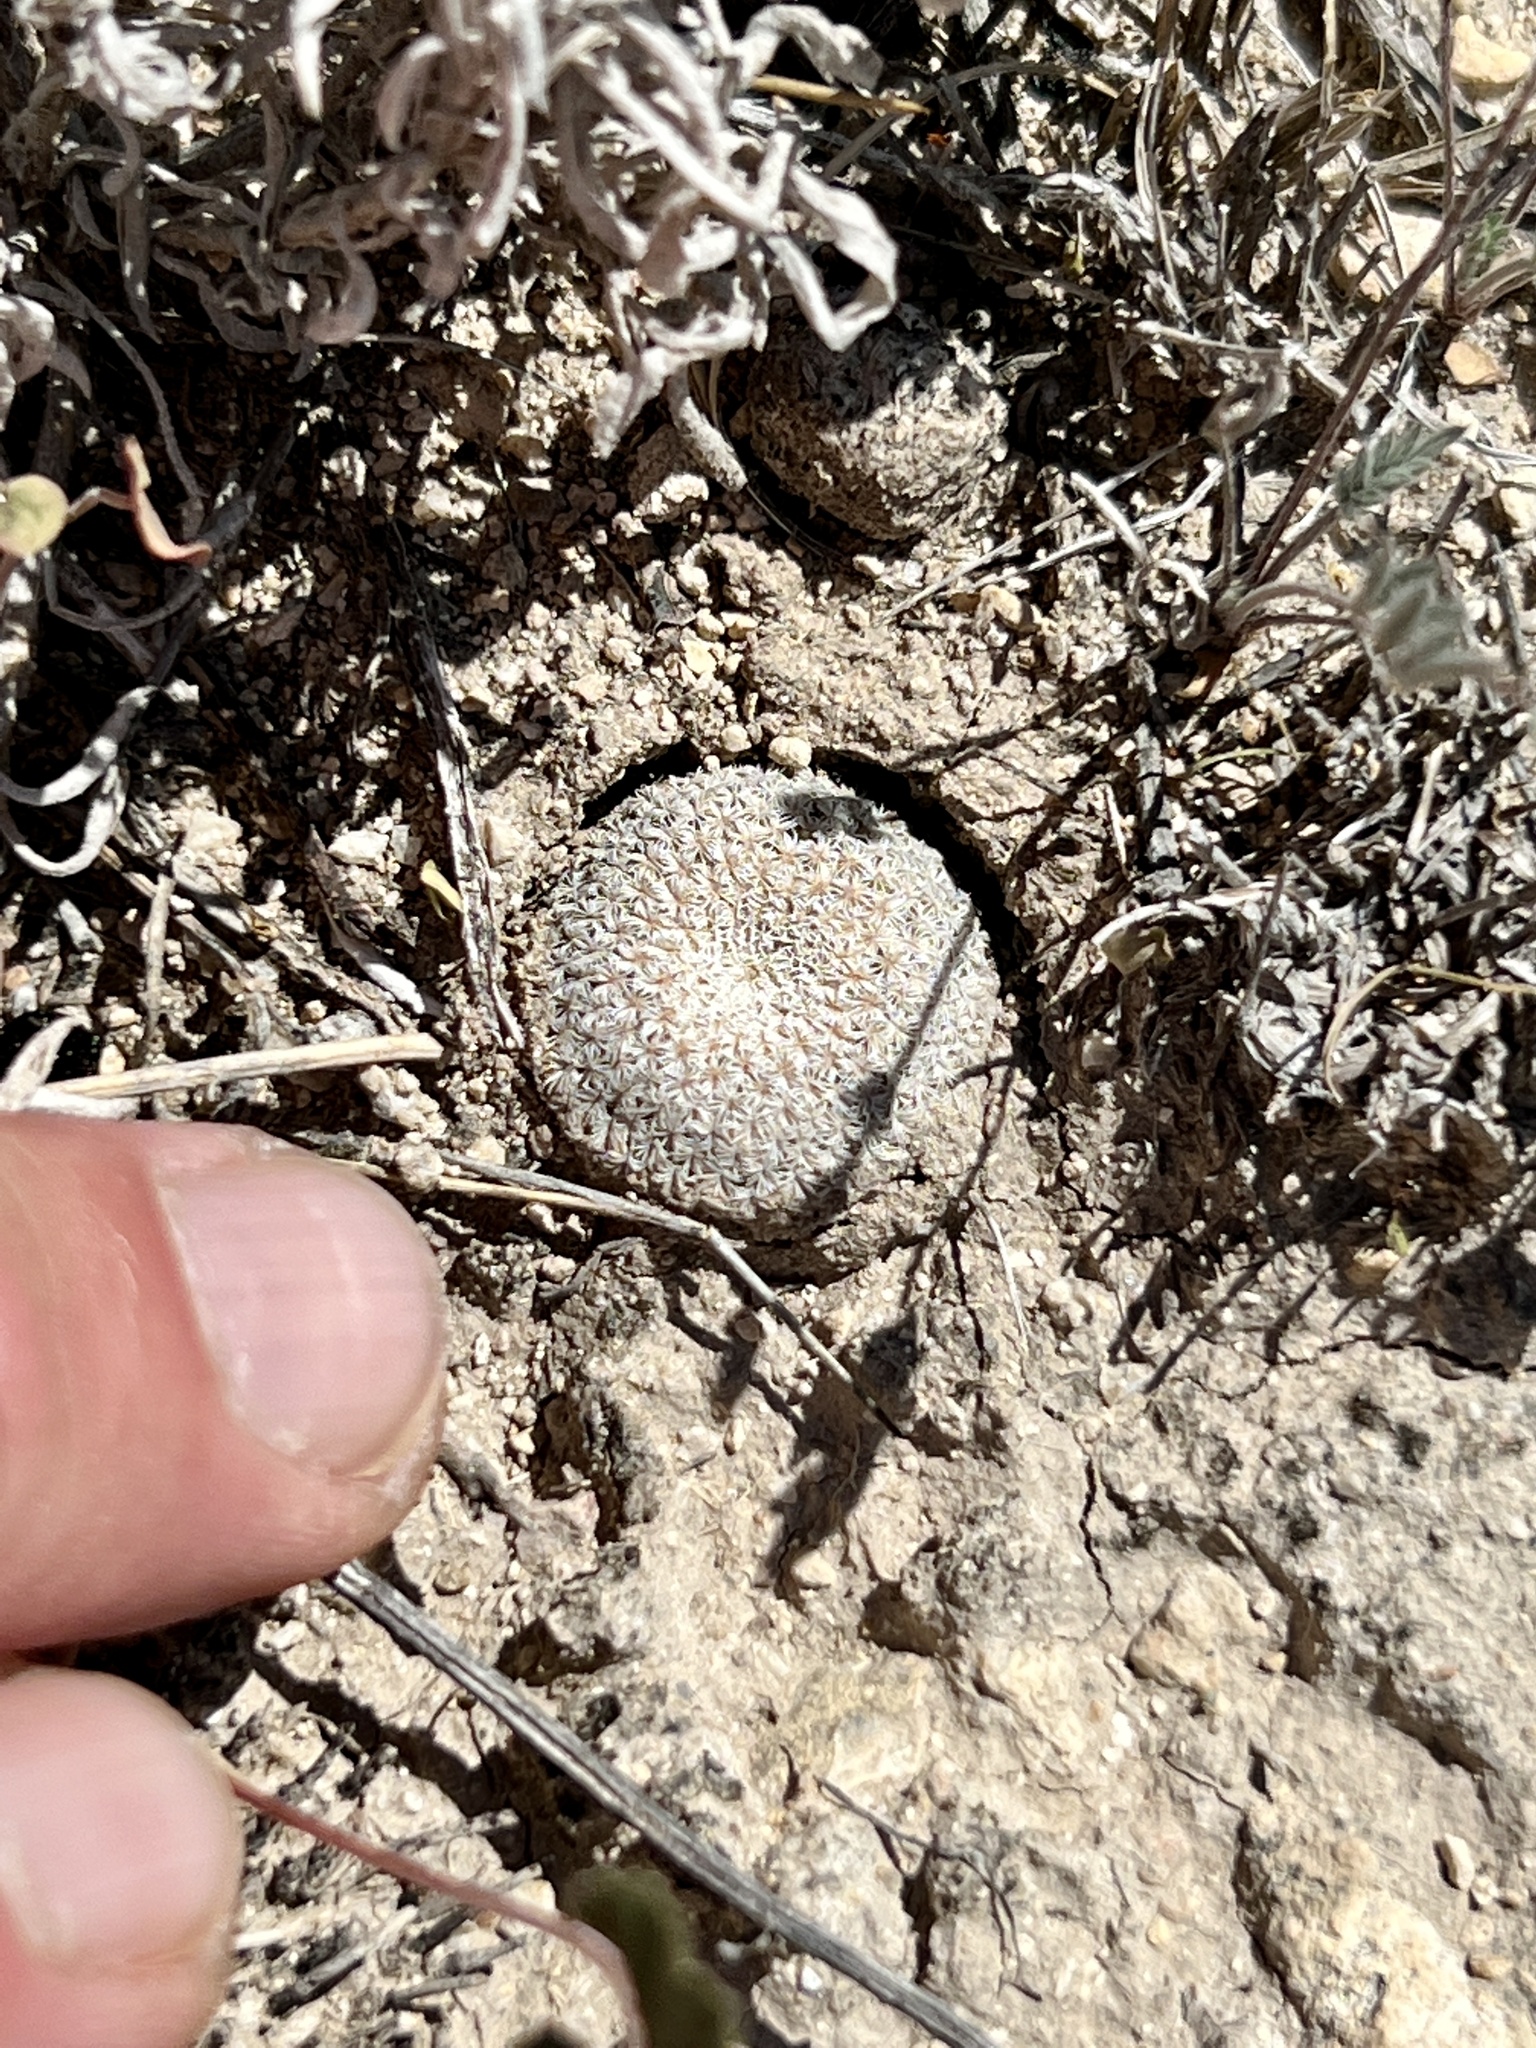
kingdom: Plantae
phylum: Tracheophyta
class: Magnoliopsida
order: Caryophyllales
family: Cactaceae
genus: Epithelantha
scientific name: Epithelantha micromeris
